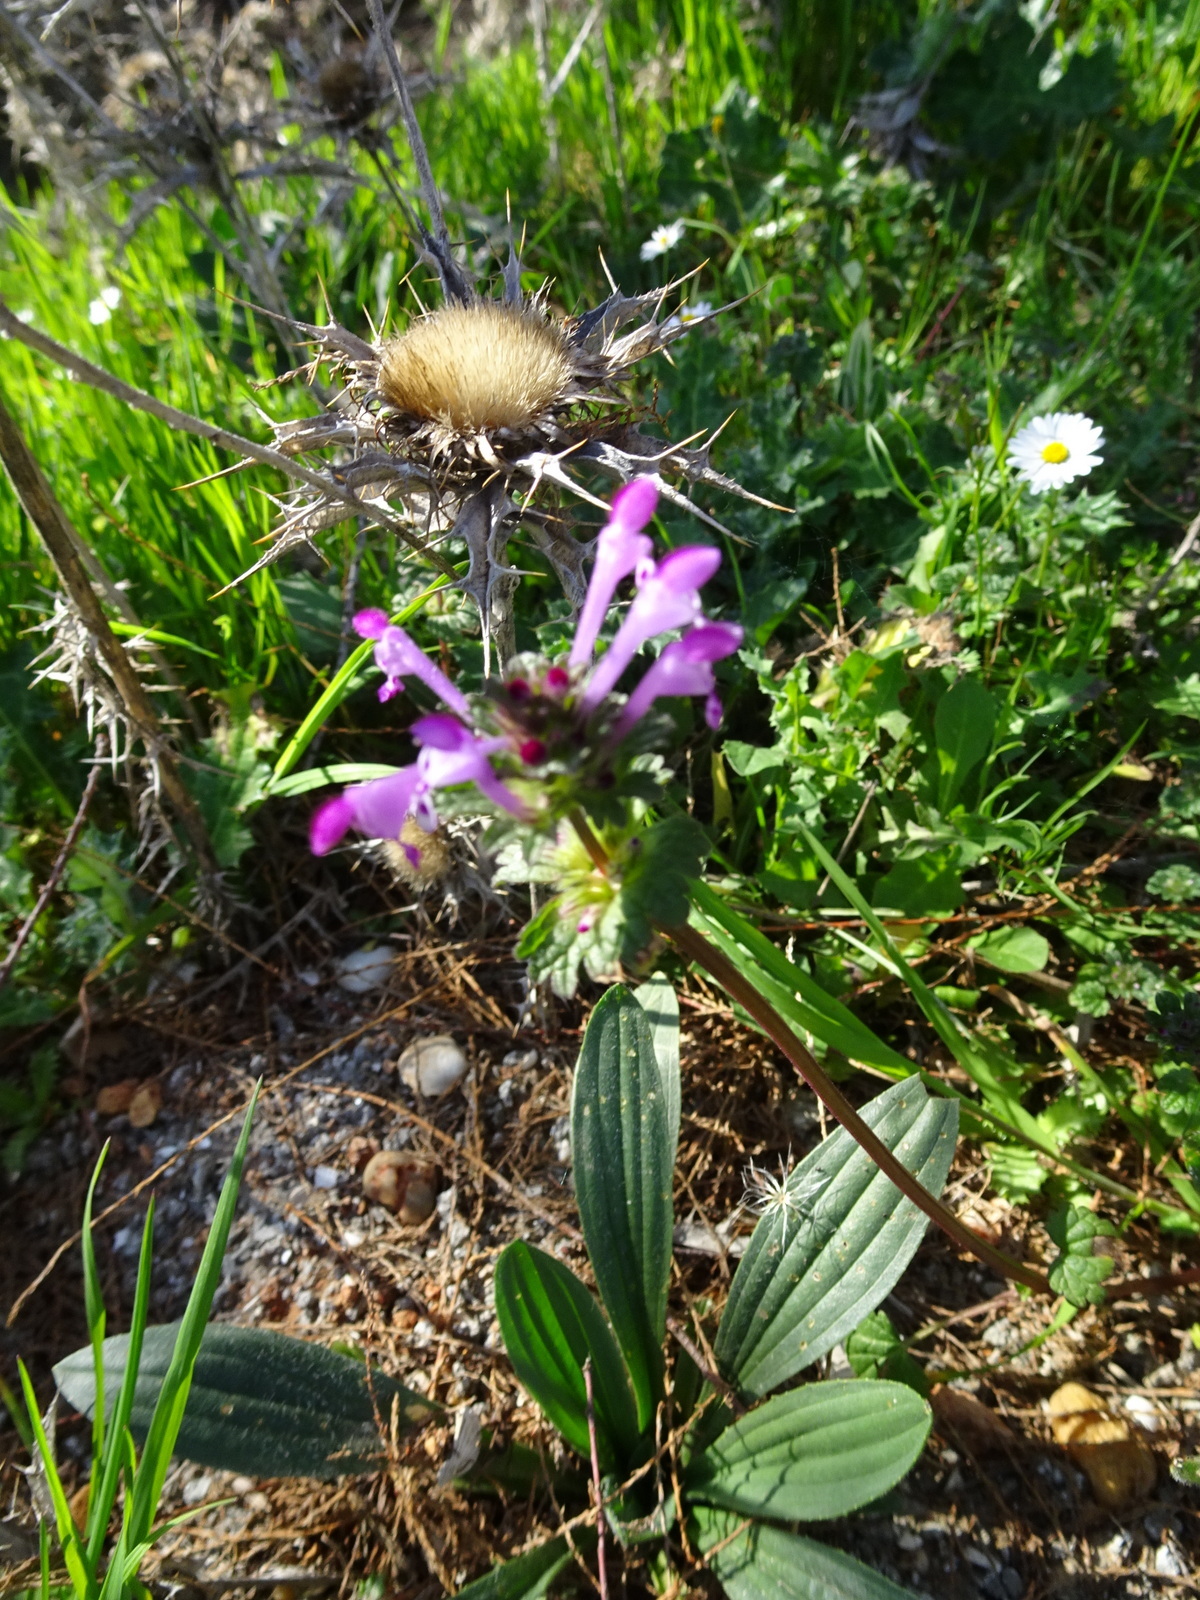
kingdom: Plantae
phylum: Tracheophyta
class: Magnoliopsida
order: Lamiales
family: Lamiaceae
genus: Lamium
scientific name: Lamium amplexicaule
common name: Henbit dead-nettle
